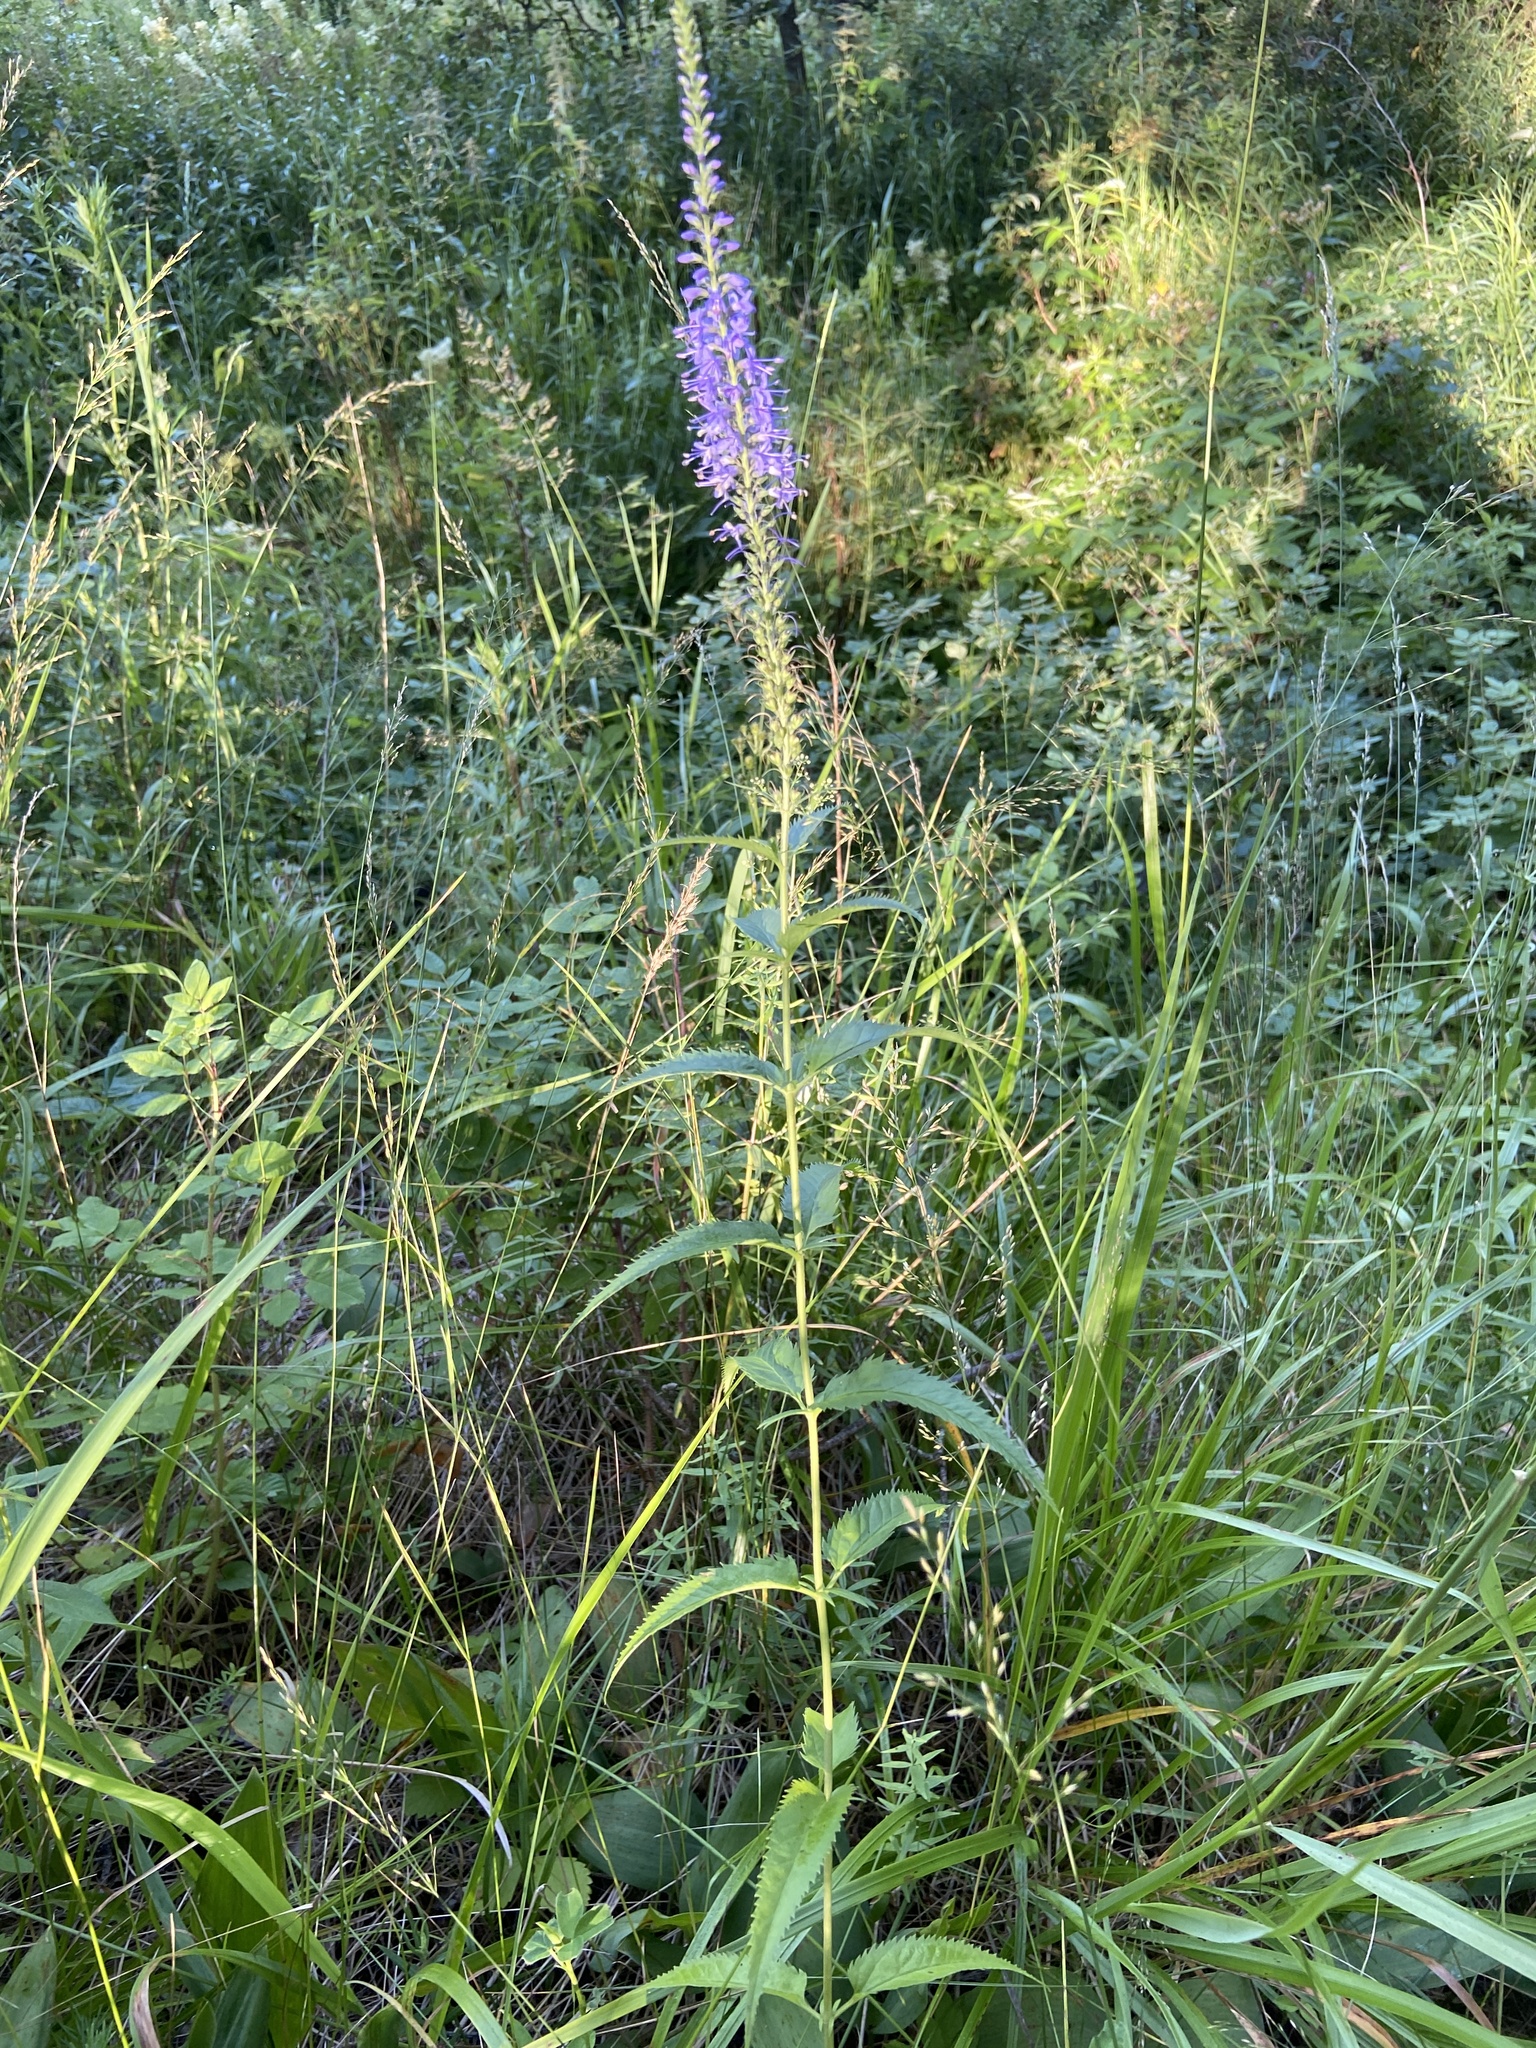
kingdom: Plantae
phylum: Tracheophyta
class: Magnoliopsida
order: Lamiales
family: Plantaginaceae
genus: Veronica
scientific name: Veronica longifolia
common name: Garden speedwell
